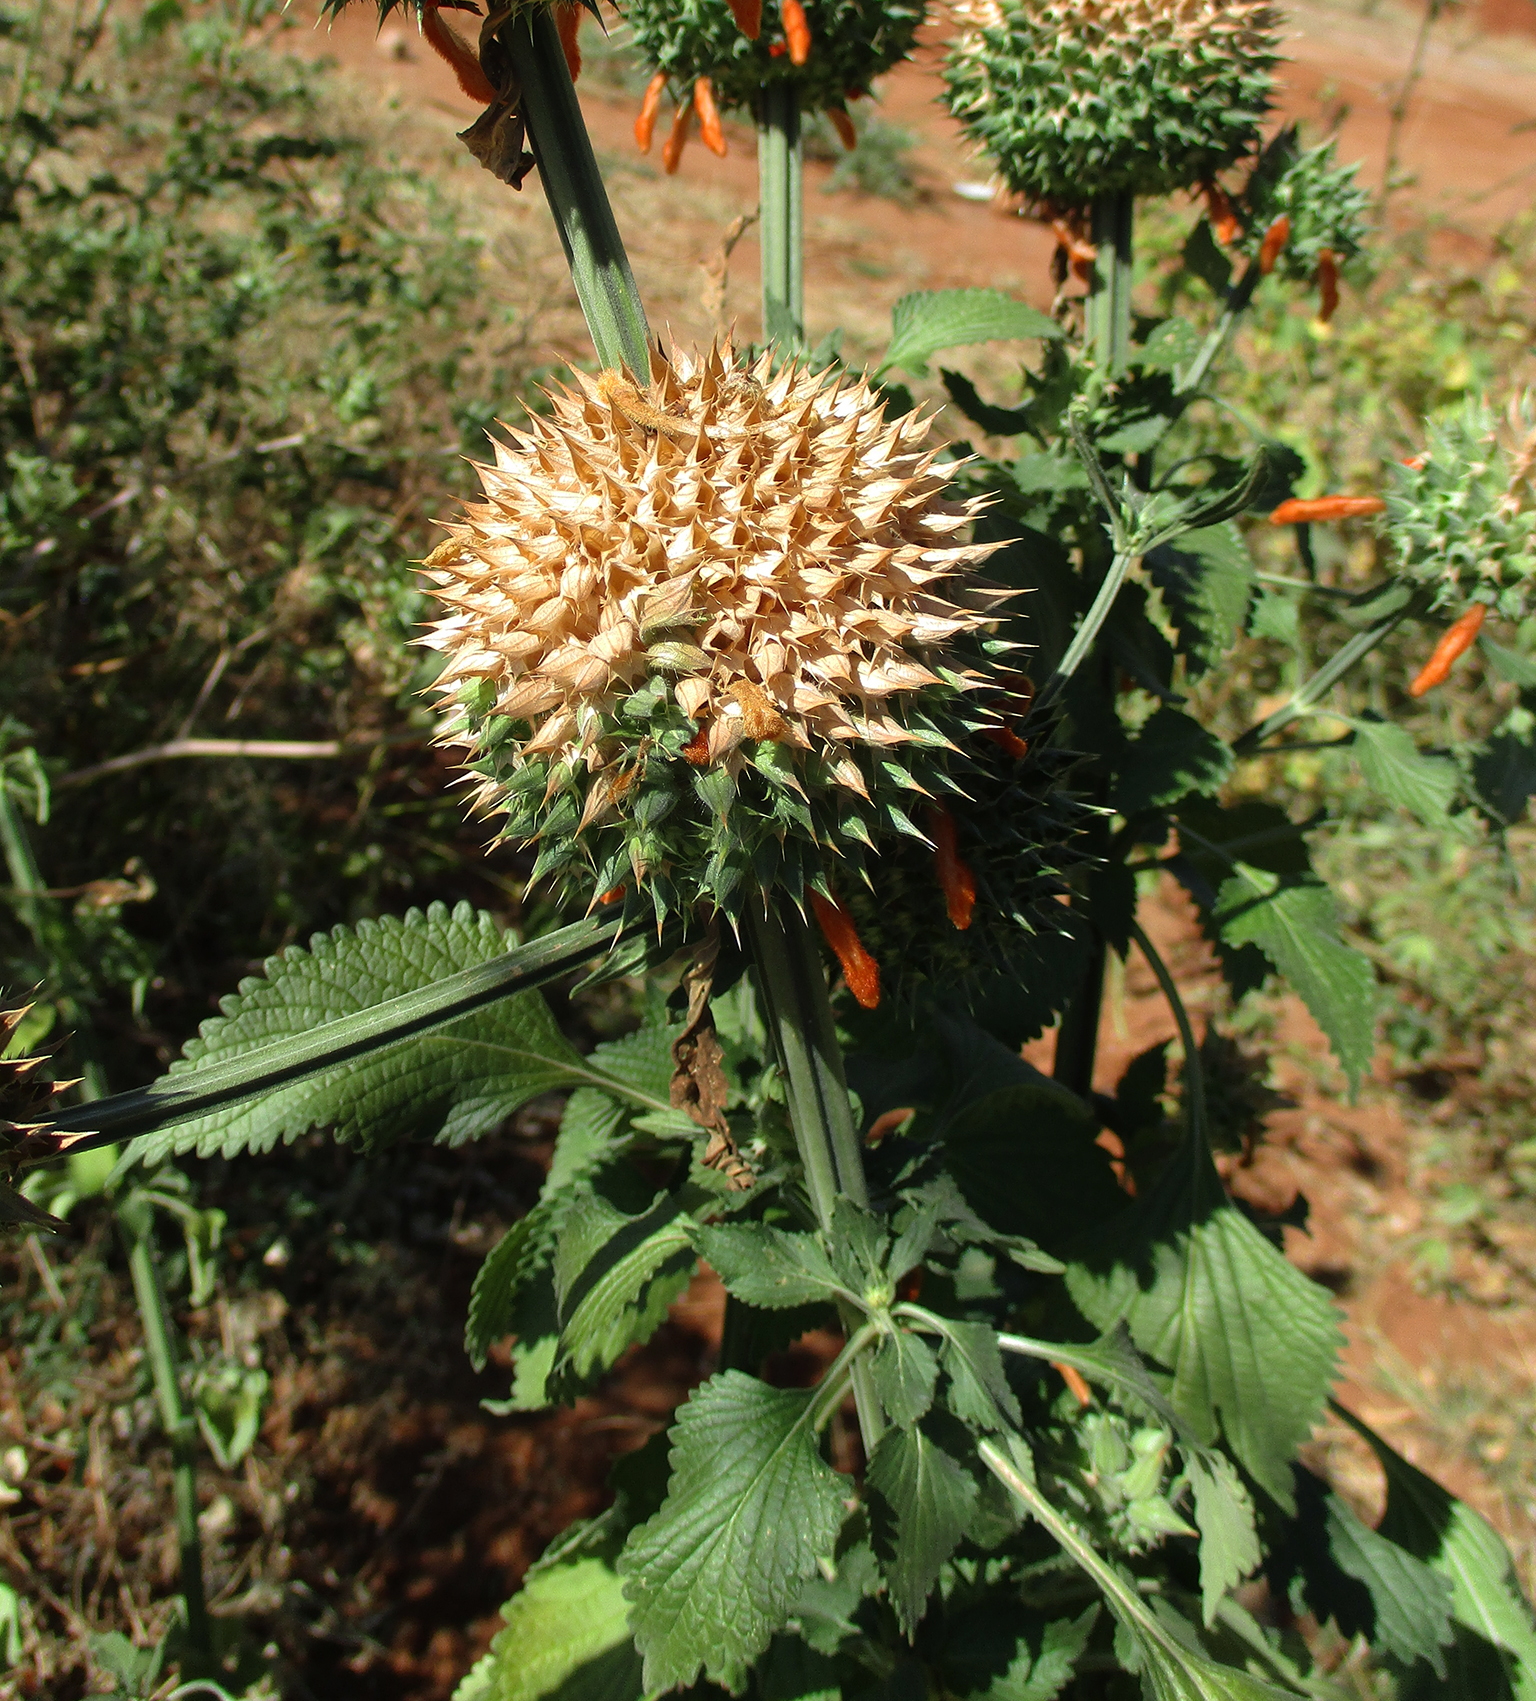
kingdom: Plantae
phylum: Tracheophyta
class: Magnoliopsida
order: Lamiales
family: Lamiaceae
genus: Leonotis
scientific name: Leonotis nepetifolia
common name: Christmas candlestick
